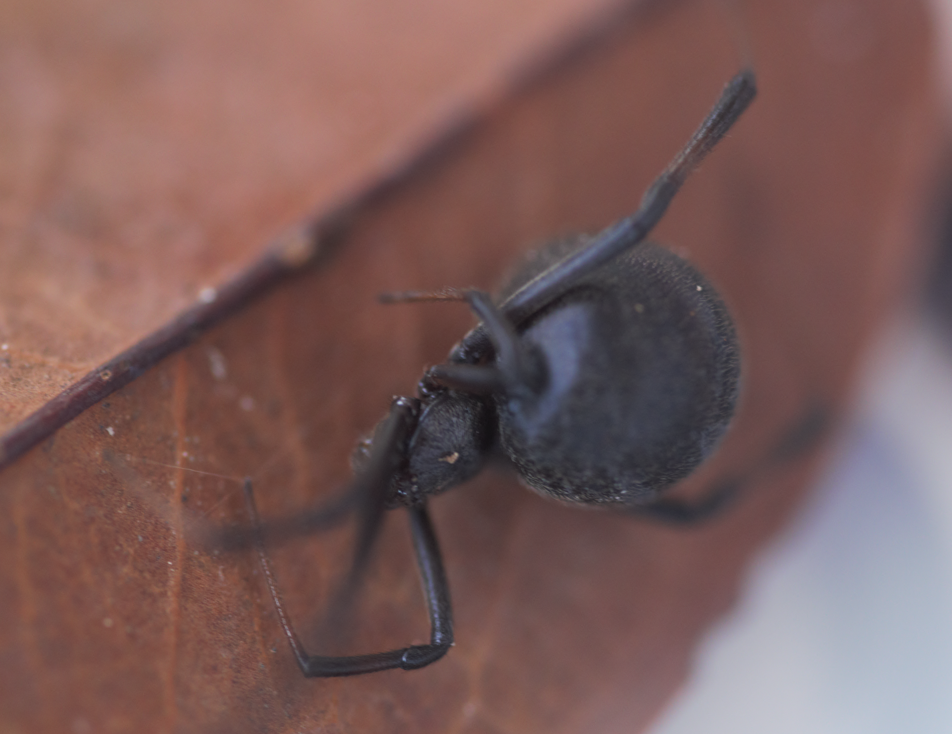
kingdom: Animalia
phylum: Arthropoda
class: Arachnida
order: Araneae
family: Theridiidae
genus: Latrodectus
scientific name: Latrodectus geometricus
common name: Brown widow spider
